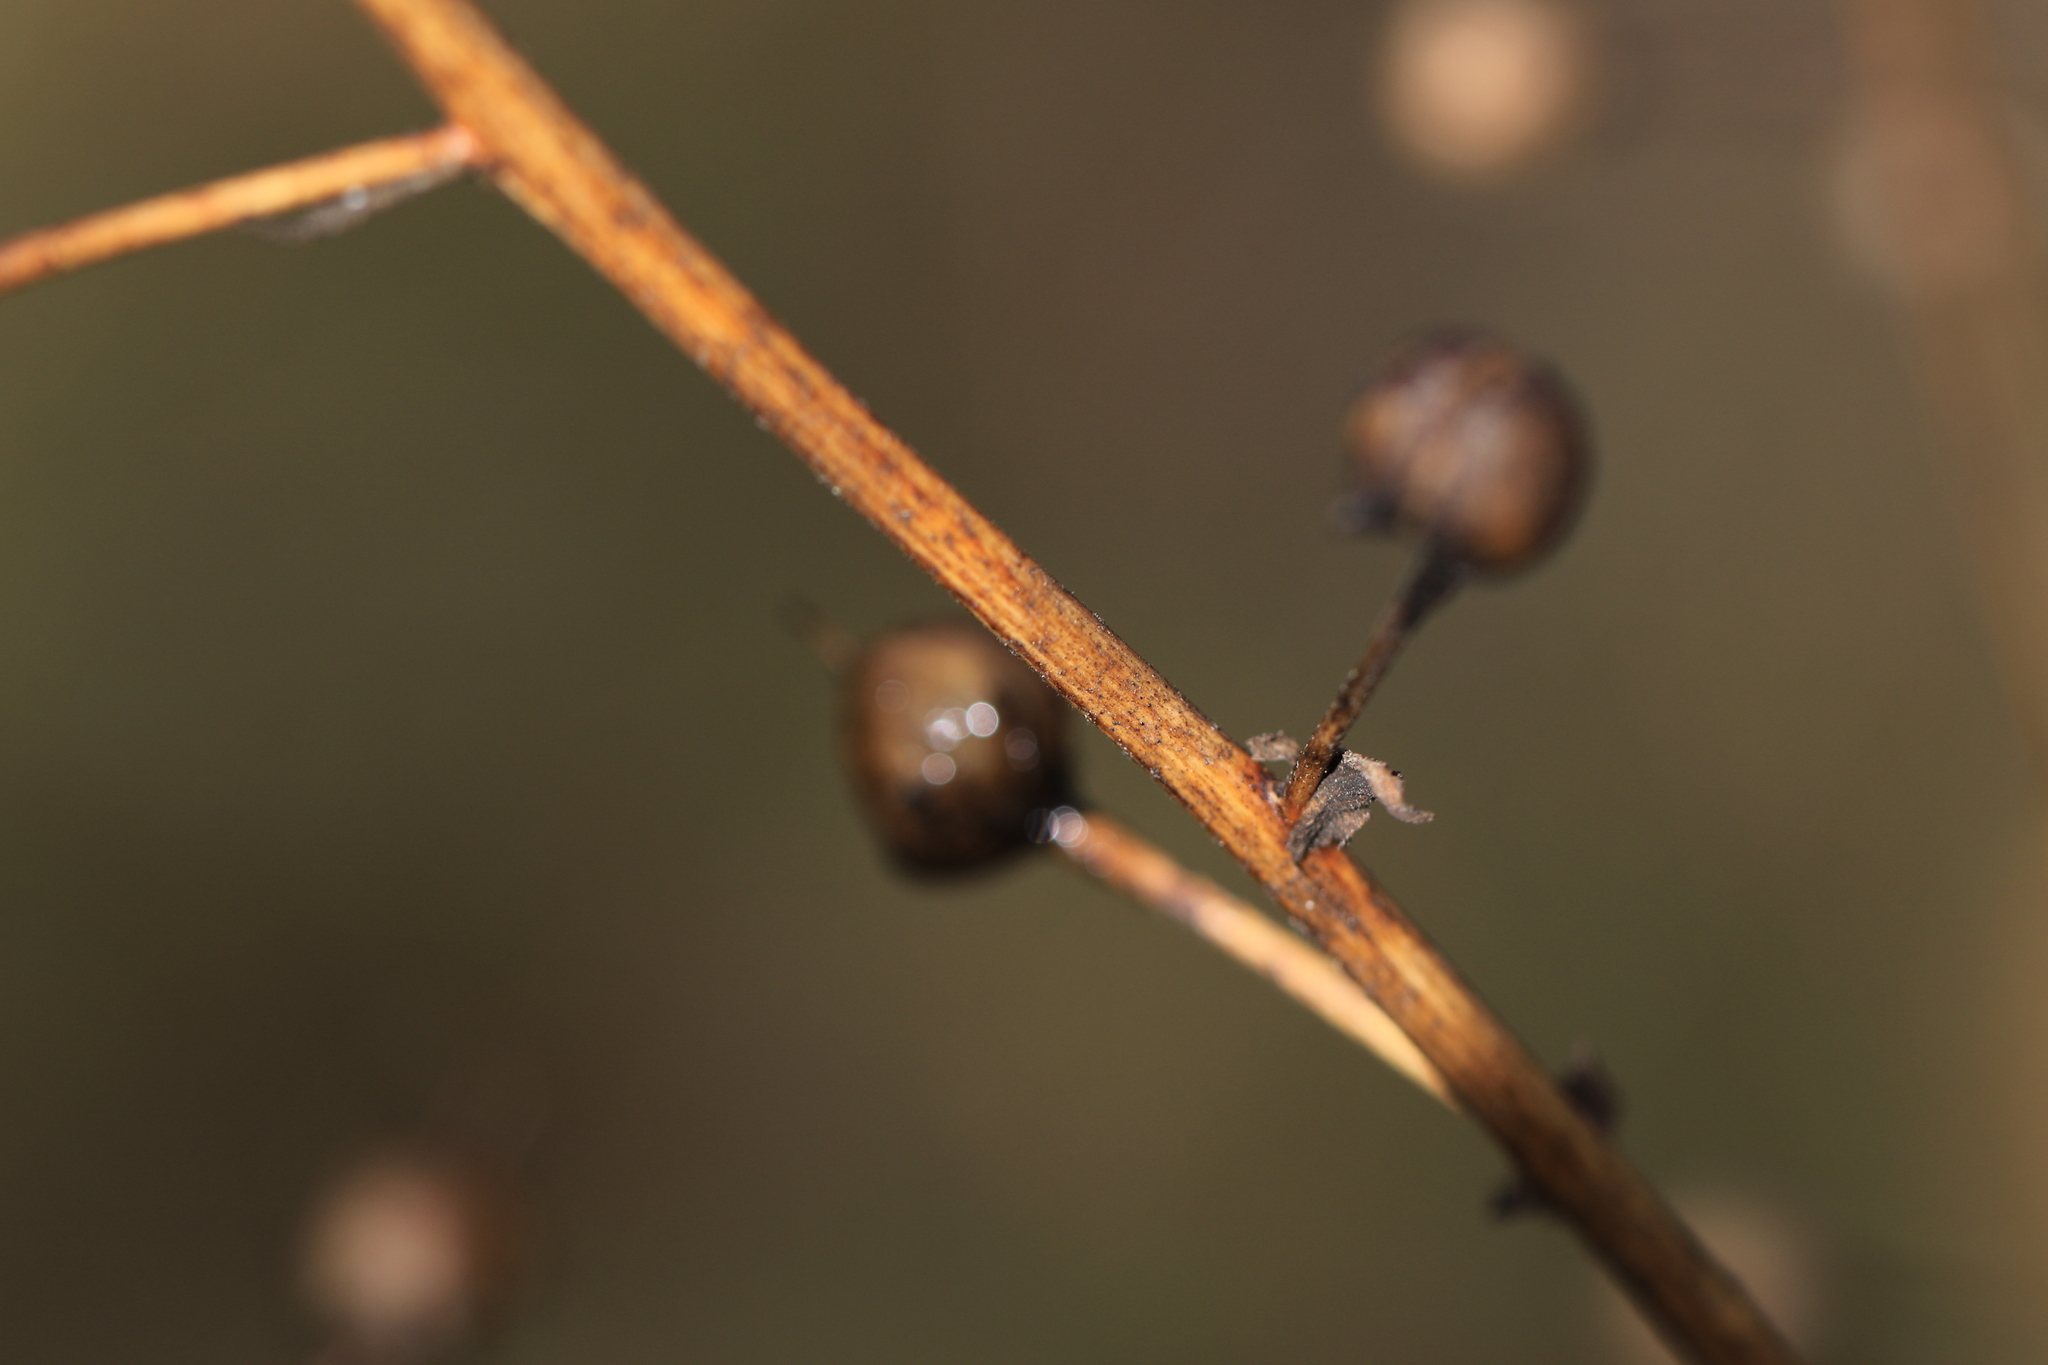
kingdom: Plantae
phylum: Tracheophyta
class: Magnoliopsida
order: Lamiales
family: Scrophulariaceae
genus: Verbascum
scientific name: Verbascum blattaria
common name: Moth mullein
